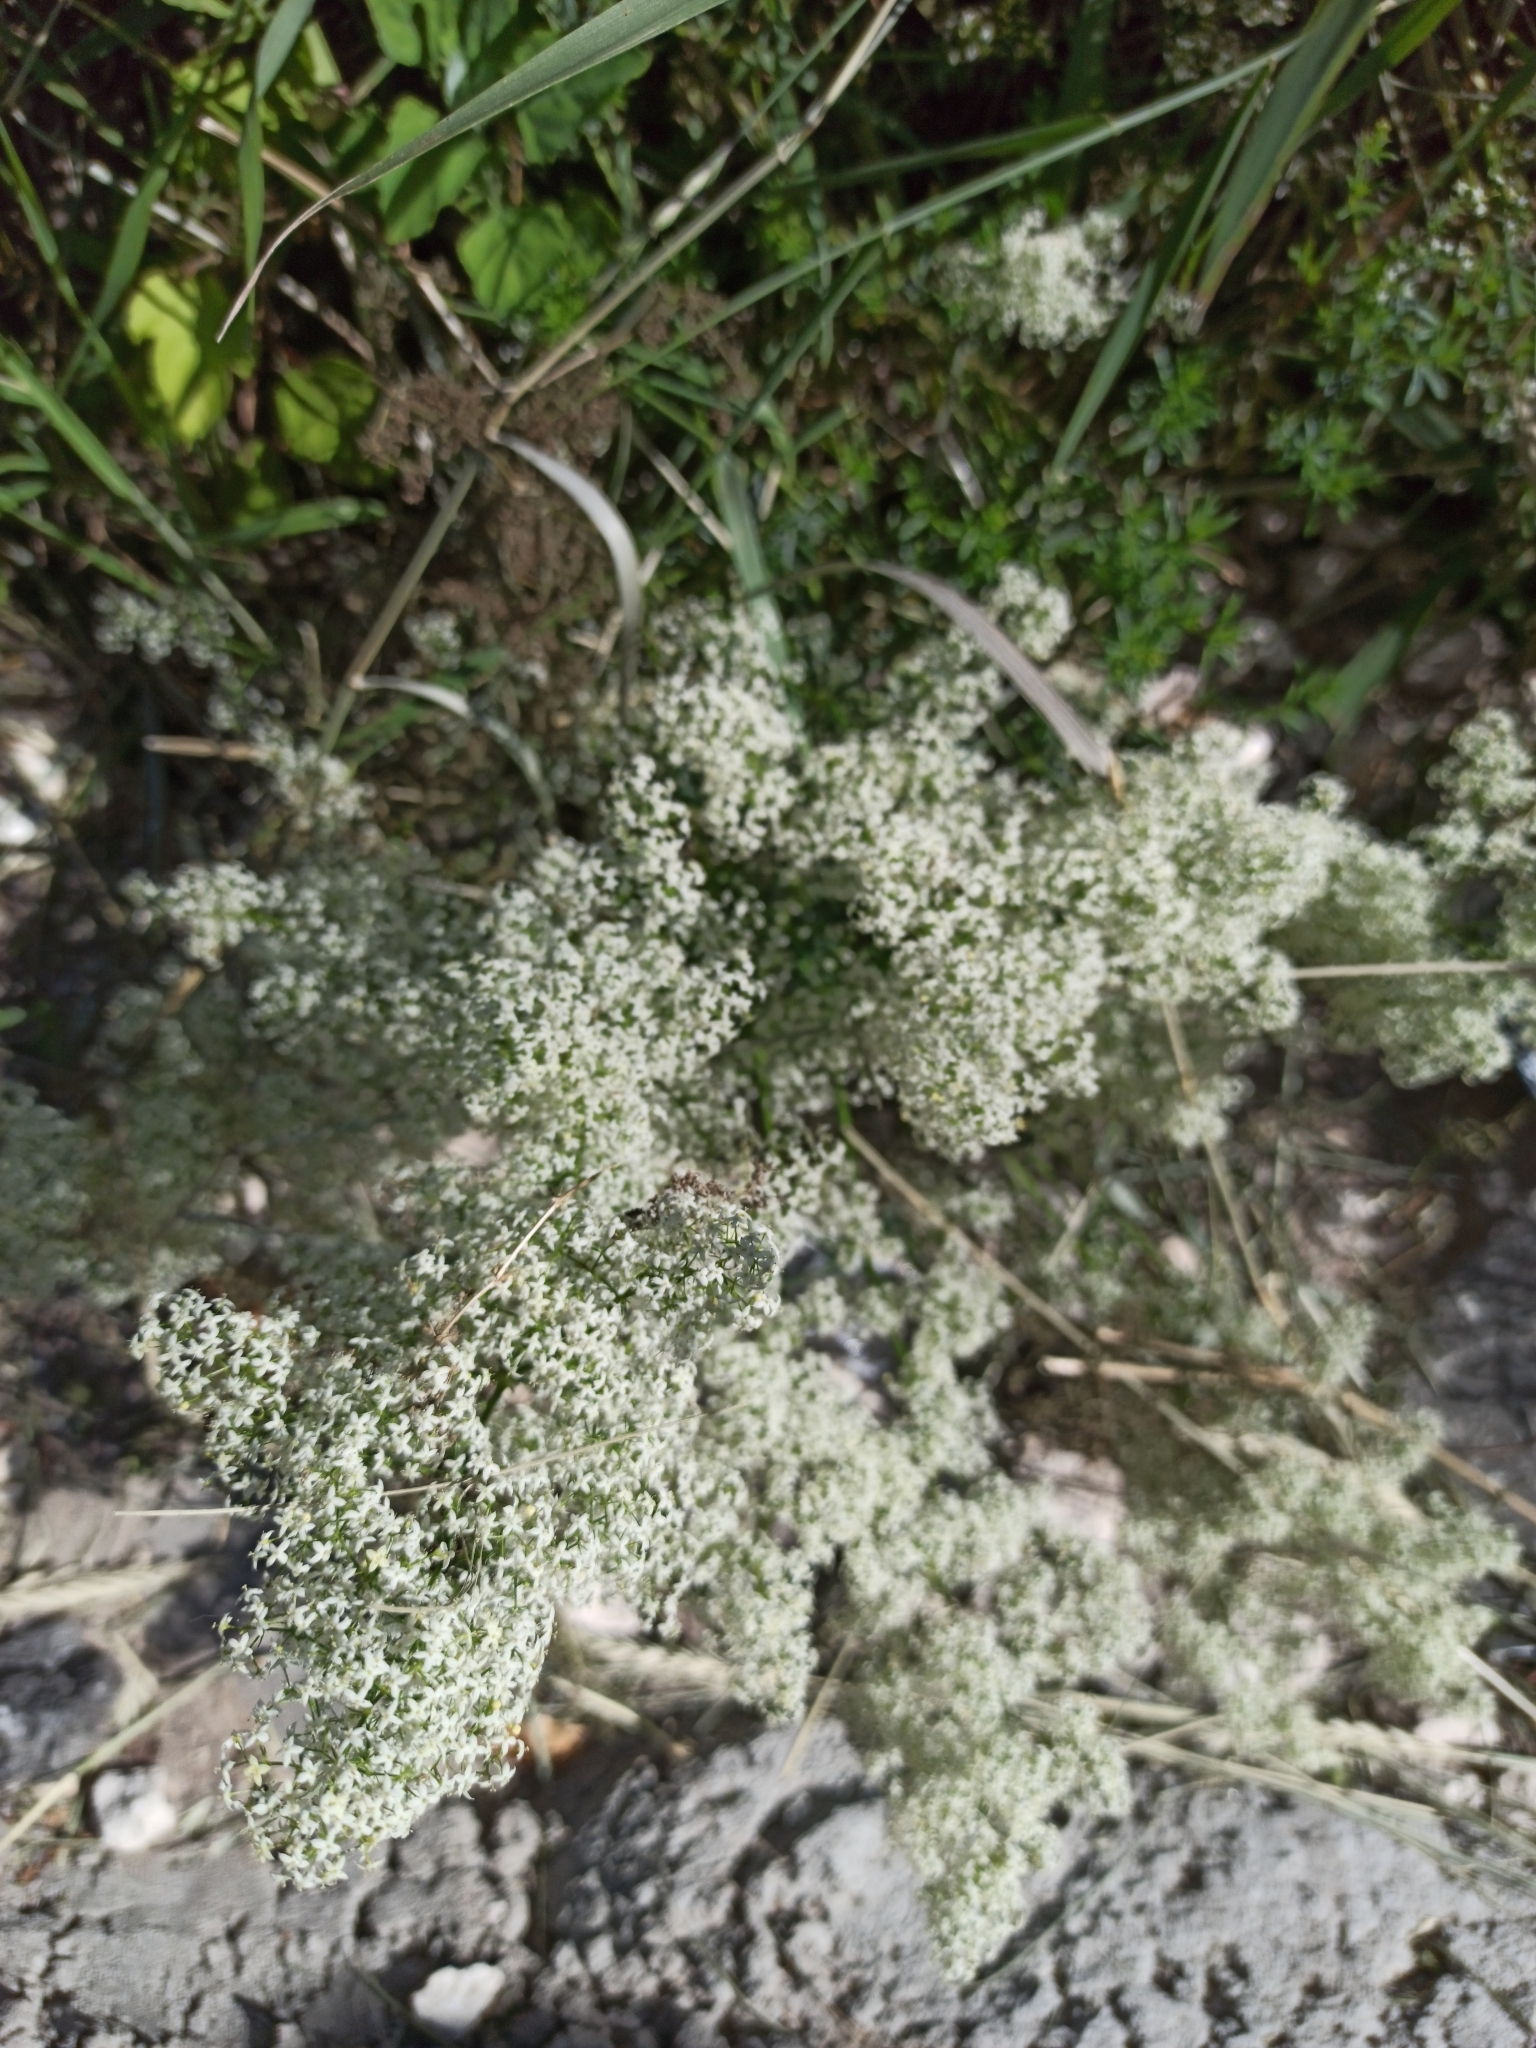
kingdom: Plantae
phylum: Tracheophyta
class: Magnoliopsida
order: Gentianales
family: Rubiaceae
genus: Galium
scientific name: Galium mollugo
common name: Hedge bedstraw
